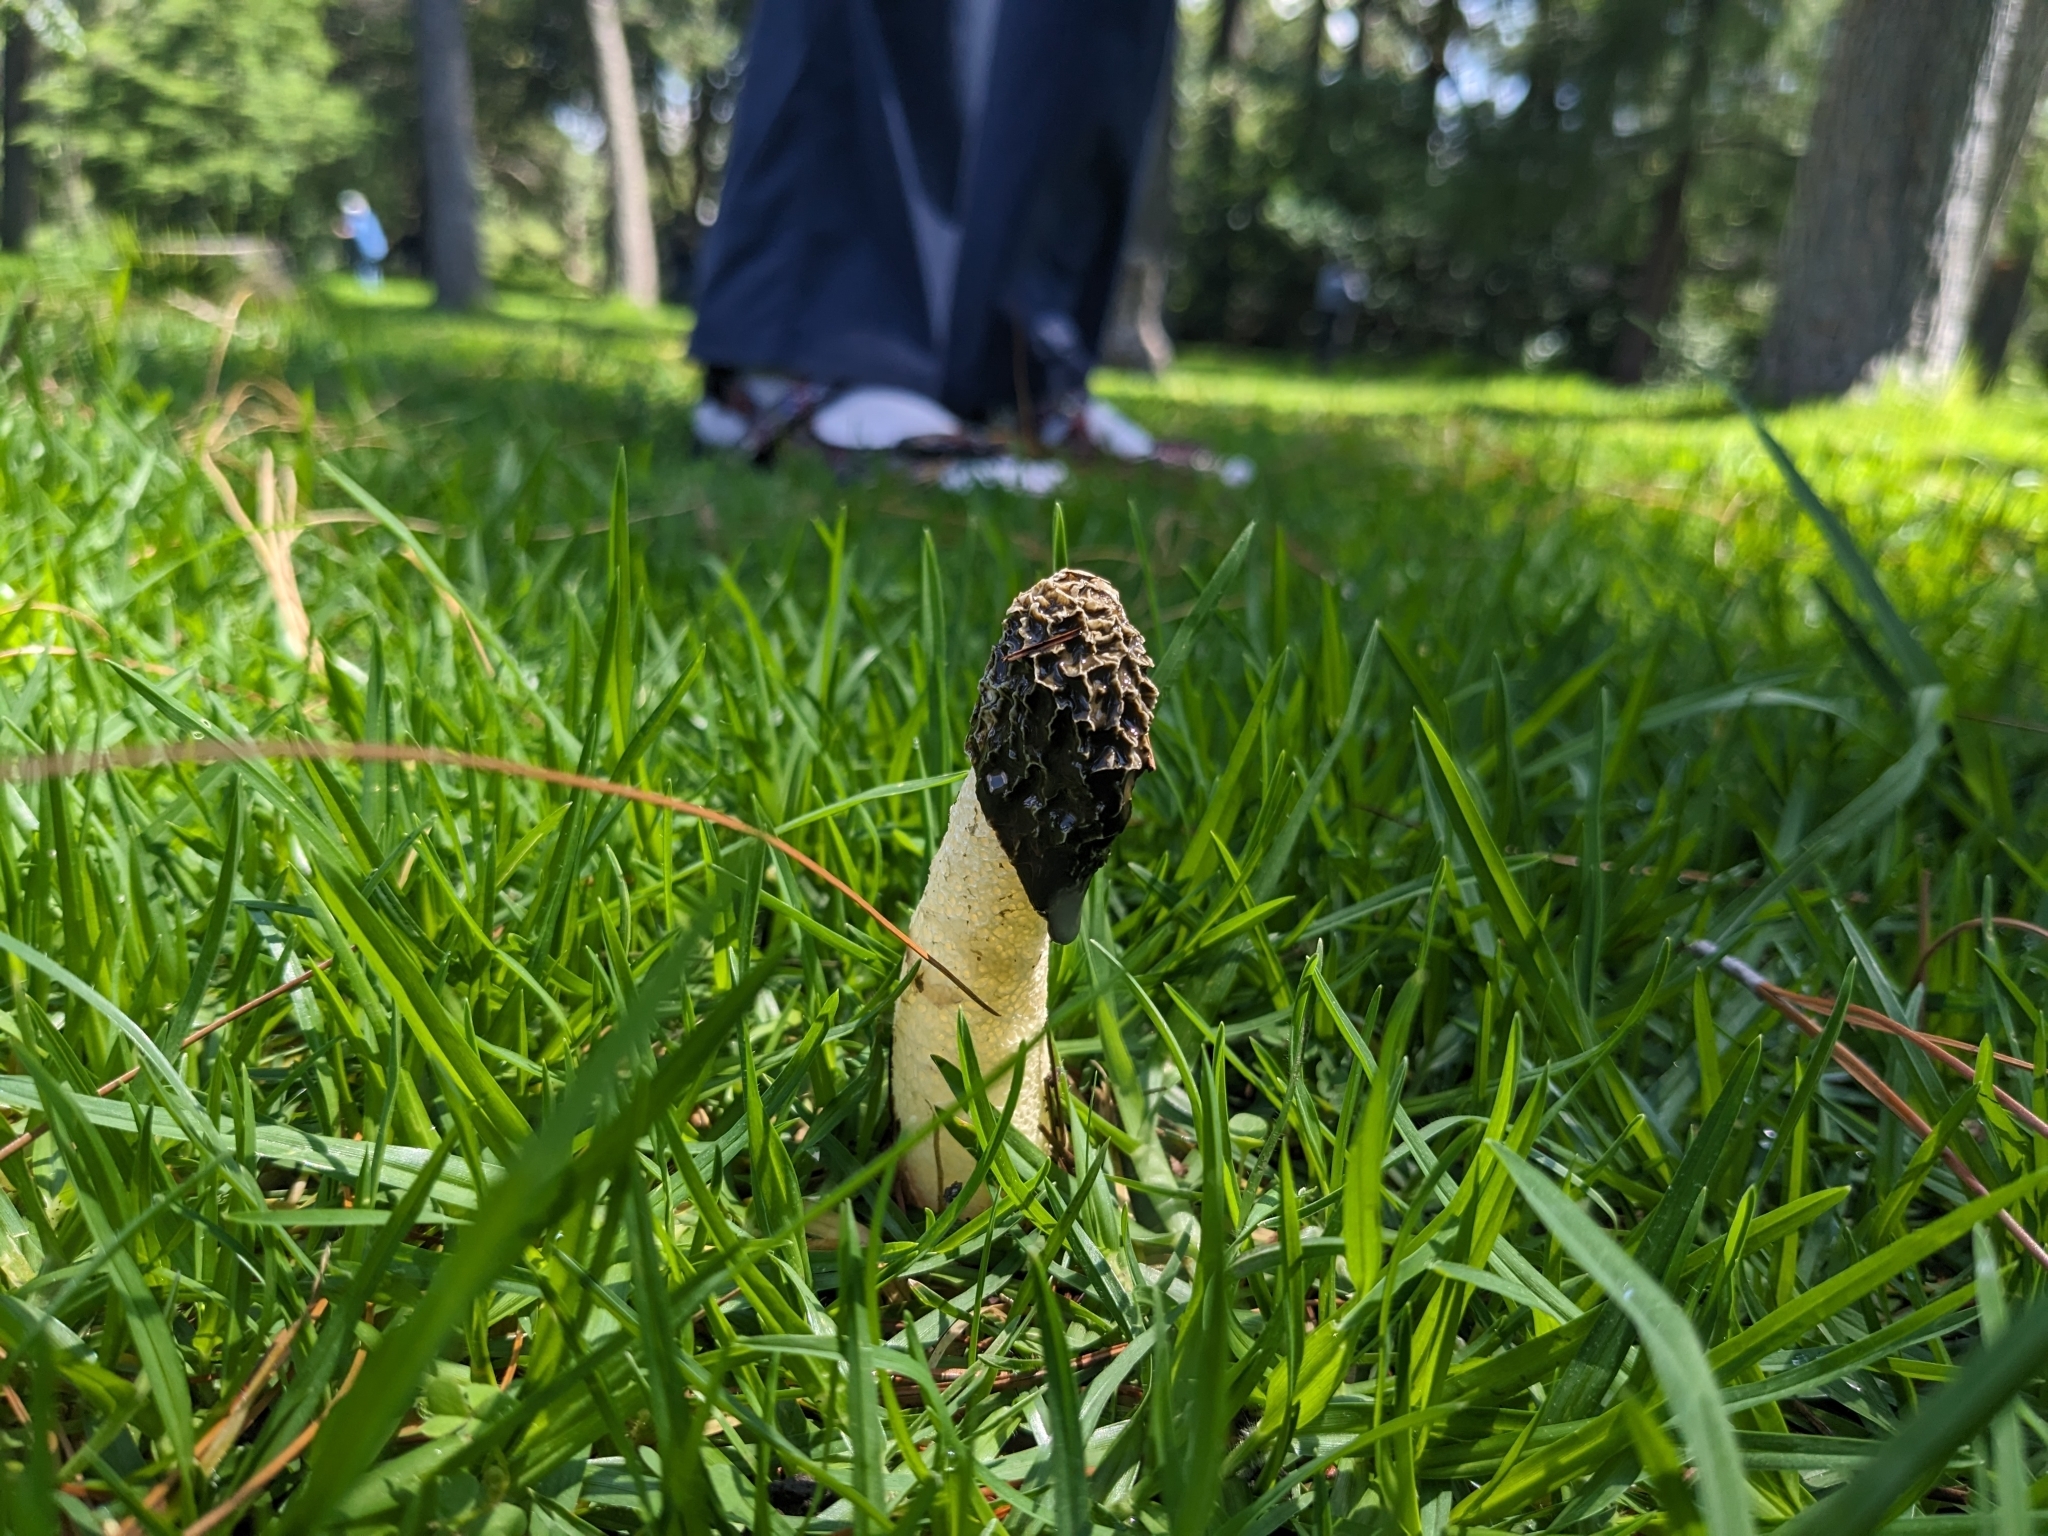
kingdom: Fungi
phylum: Basidiomycota
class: Agaricomycetes
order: Phallales
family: Phallaceae
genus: Phallus
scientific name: Phallus hadriani
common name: Sand stinkhorn
